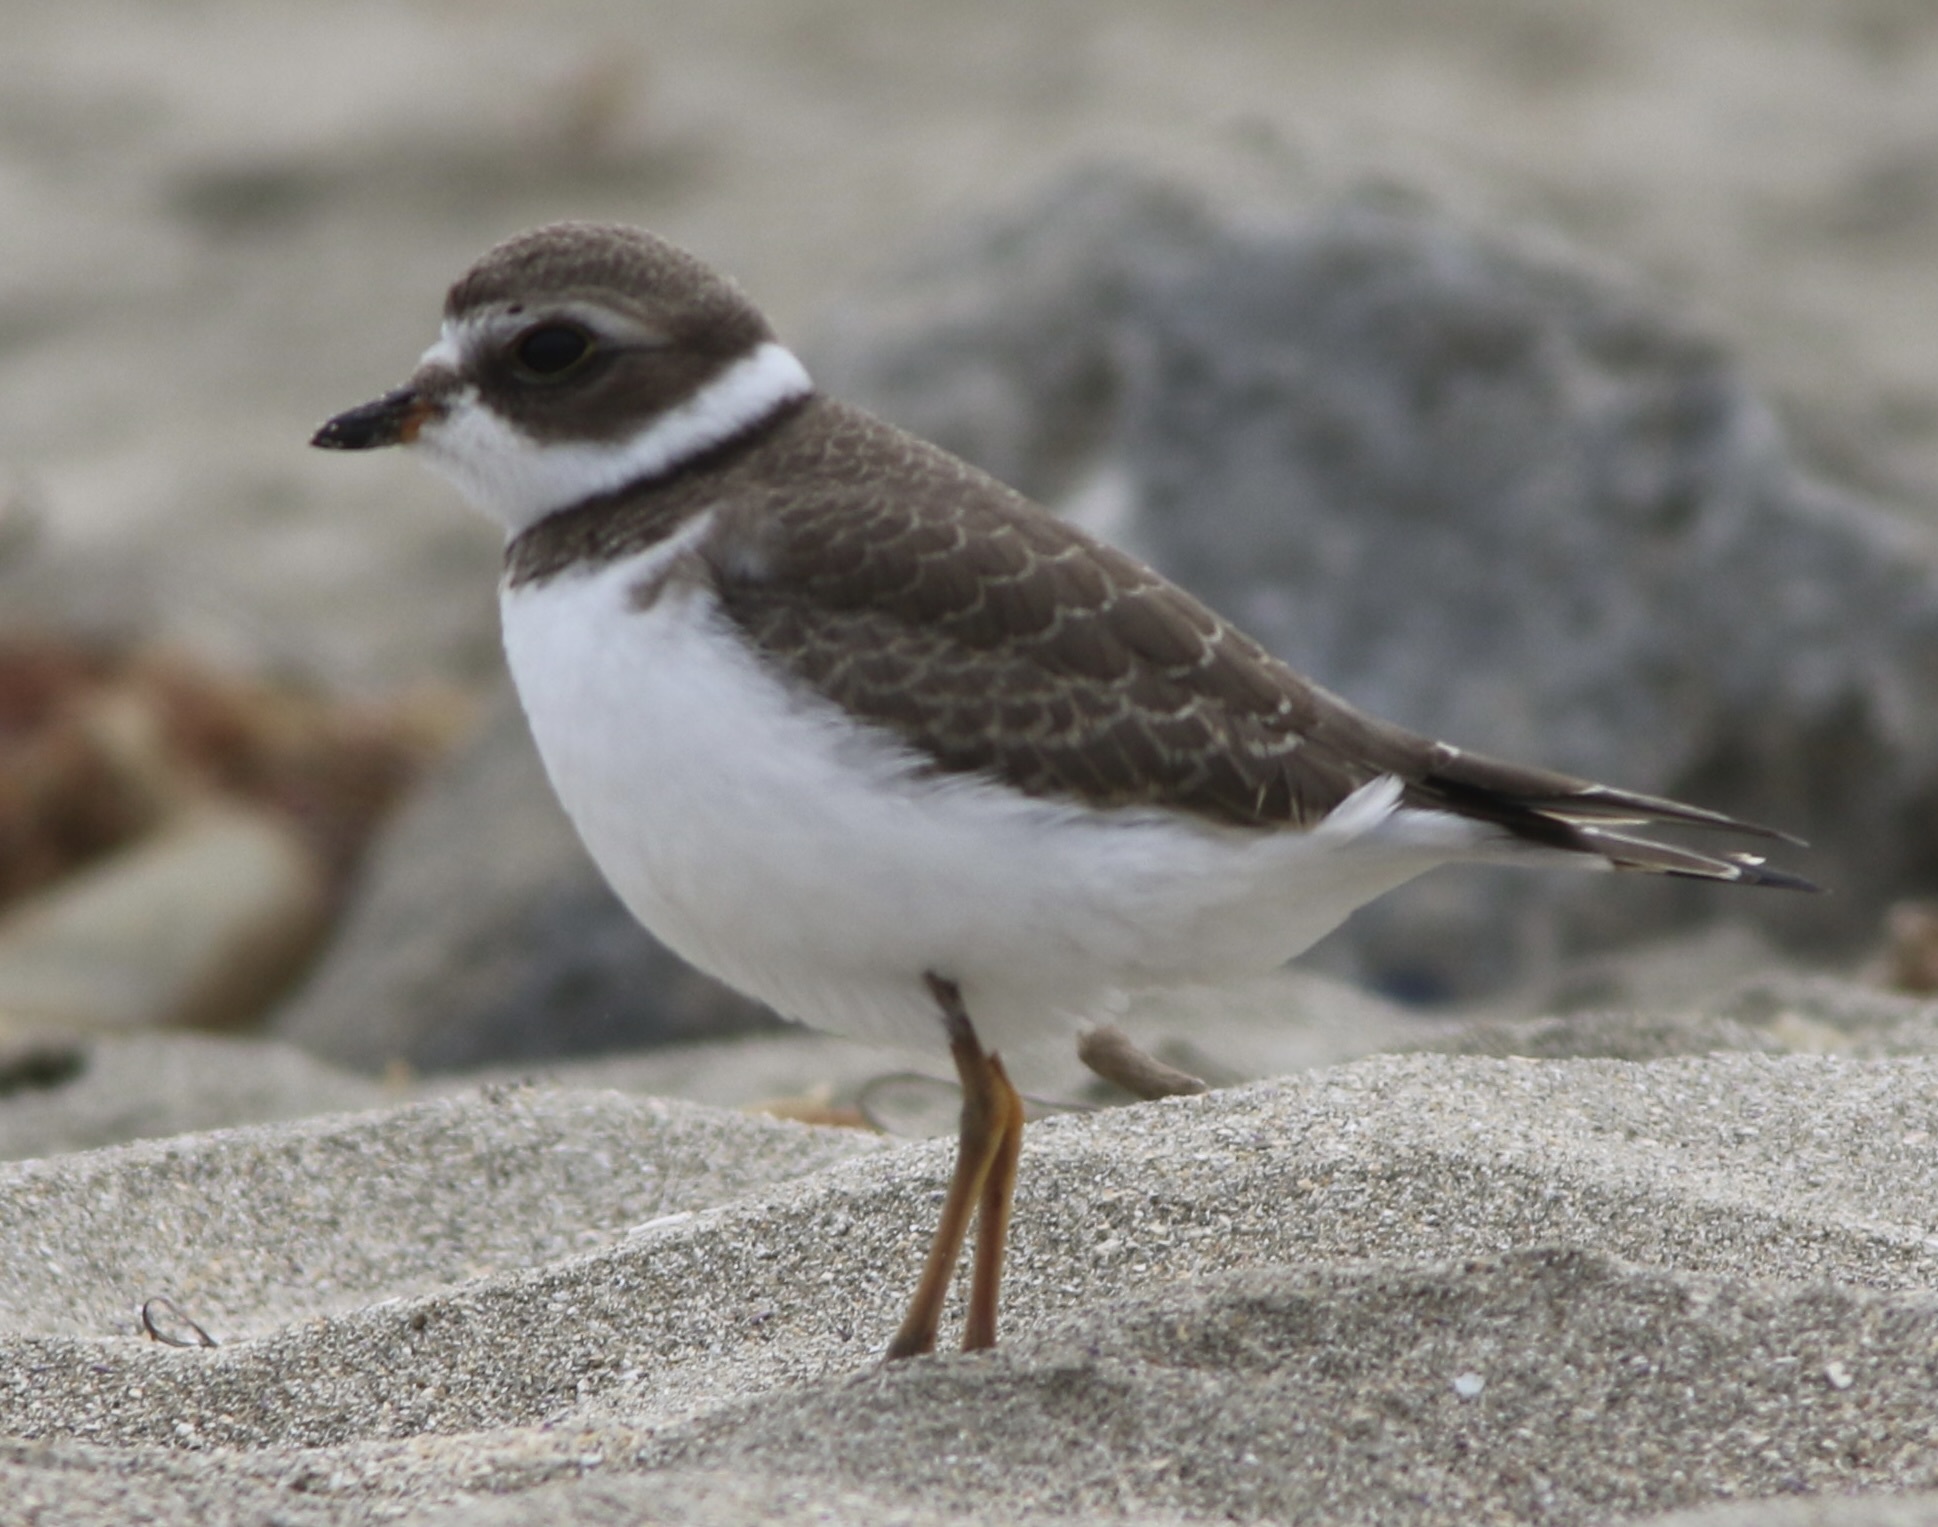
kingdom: Animalia
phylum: Chordata
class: Aves
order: Charadriiformes
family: Charadriidae
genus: Charadrius
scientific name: Charadrius semipalmatus
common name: Semipalmated plover
